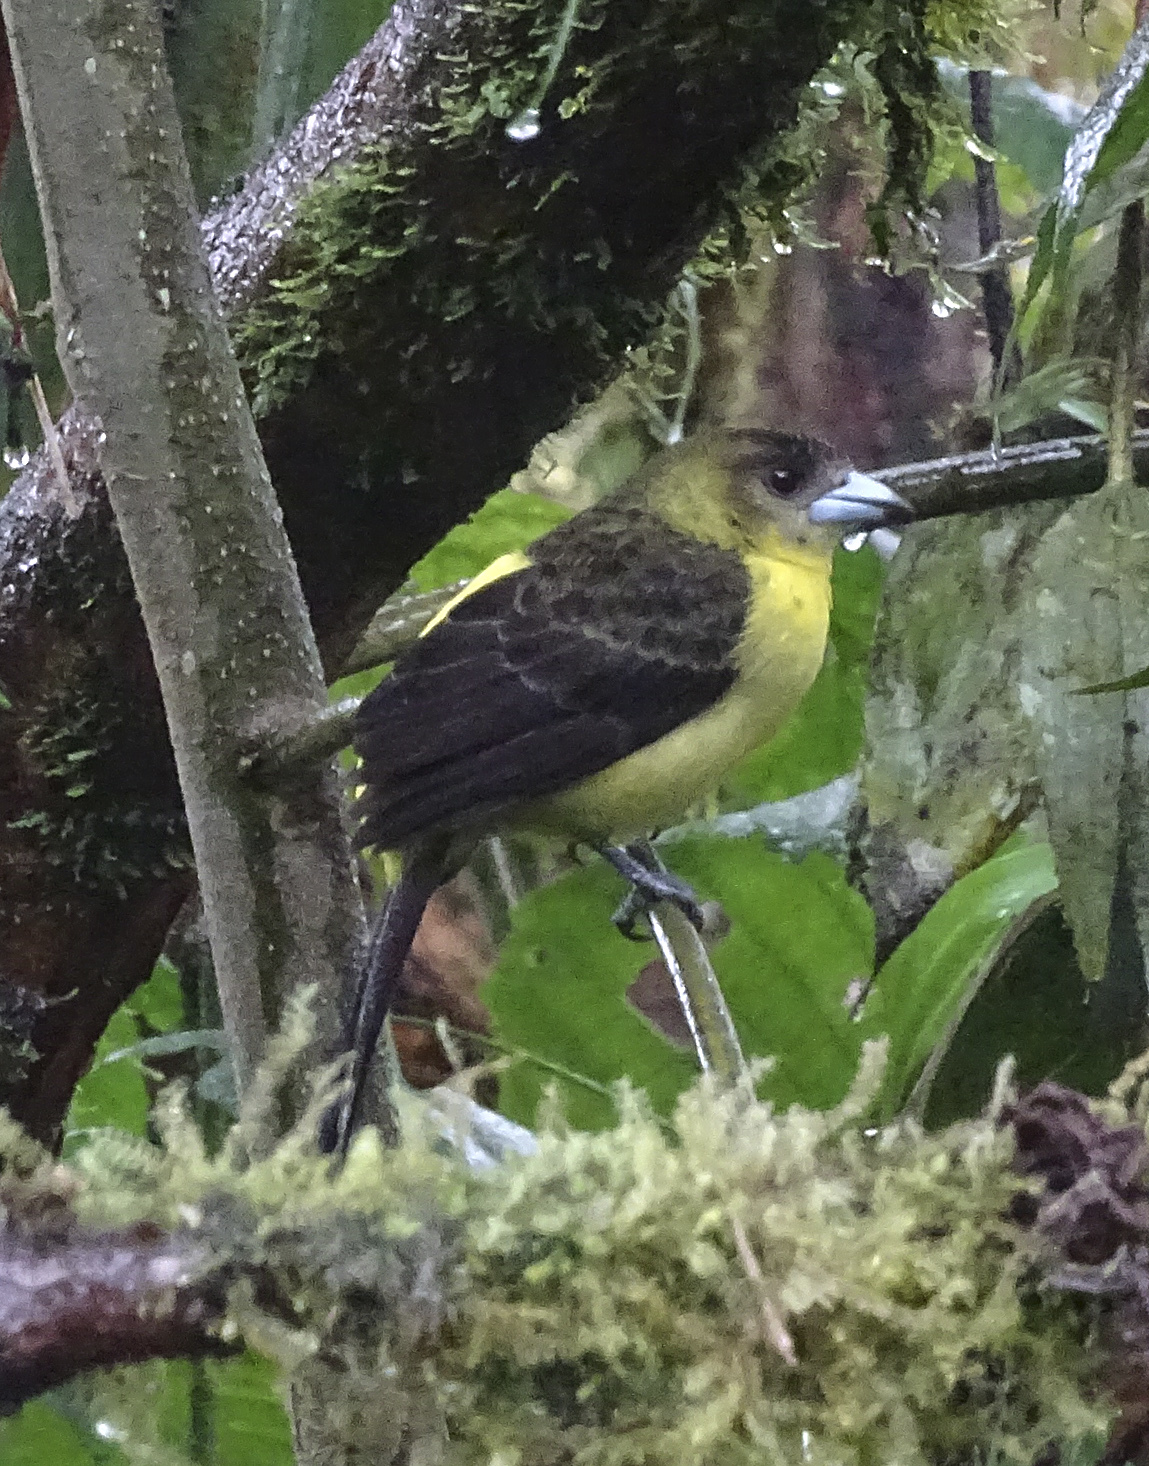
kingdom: Animalia
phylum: Chordata
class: Aves
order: Passeriformes
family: Thraupidae
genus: Ramphocelus
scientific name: Ramphocelus icteronotus
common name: Lemon-rumped tanager
